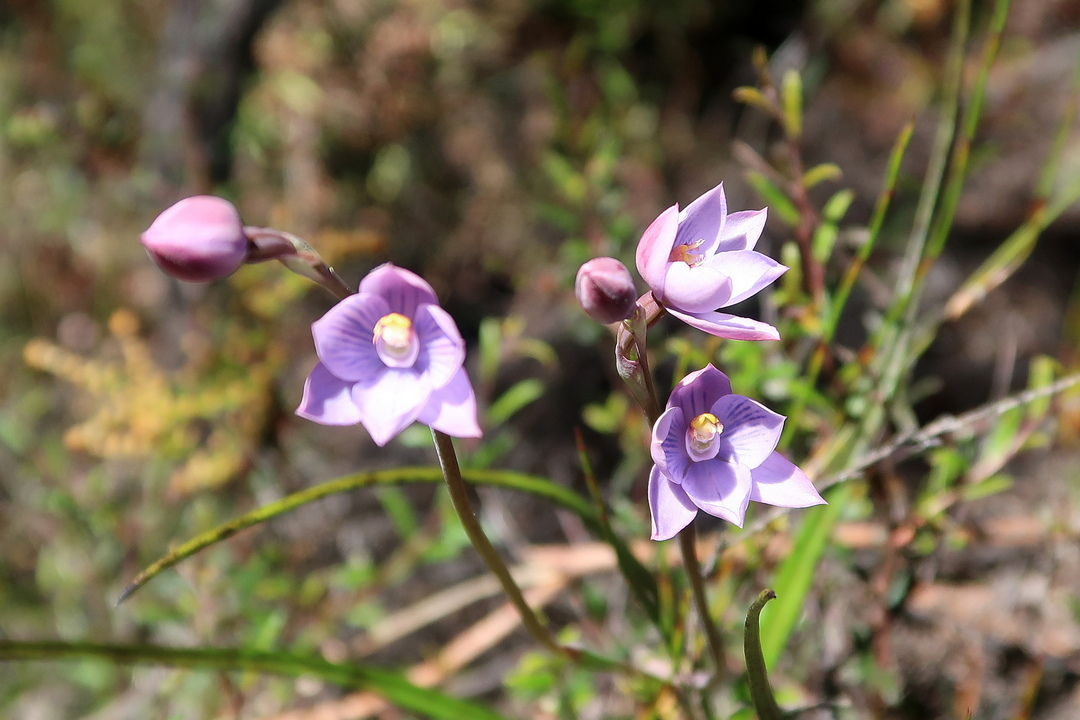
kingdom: Plantae
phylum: Tracheophyta
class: Liliopsida
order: Asparagales
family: Orchidaceae
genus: Thelymitra
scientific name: Thelymitra pulchella
